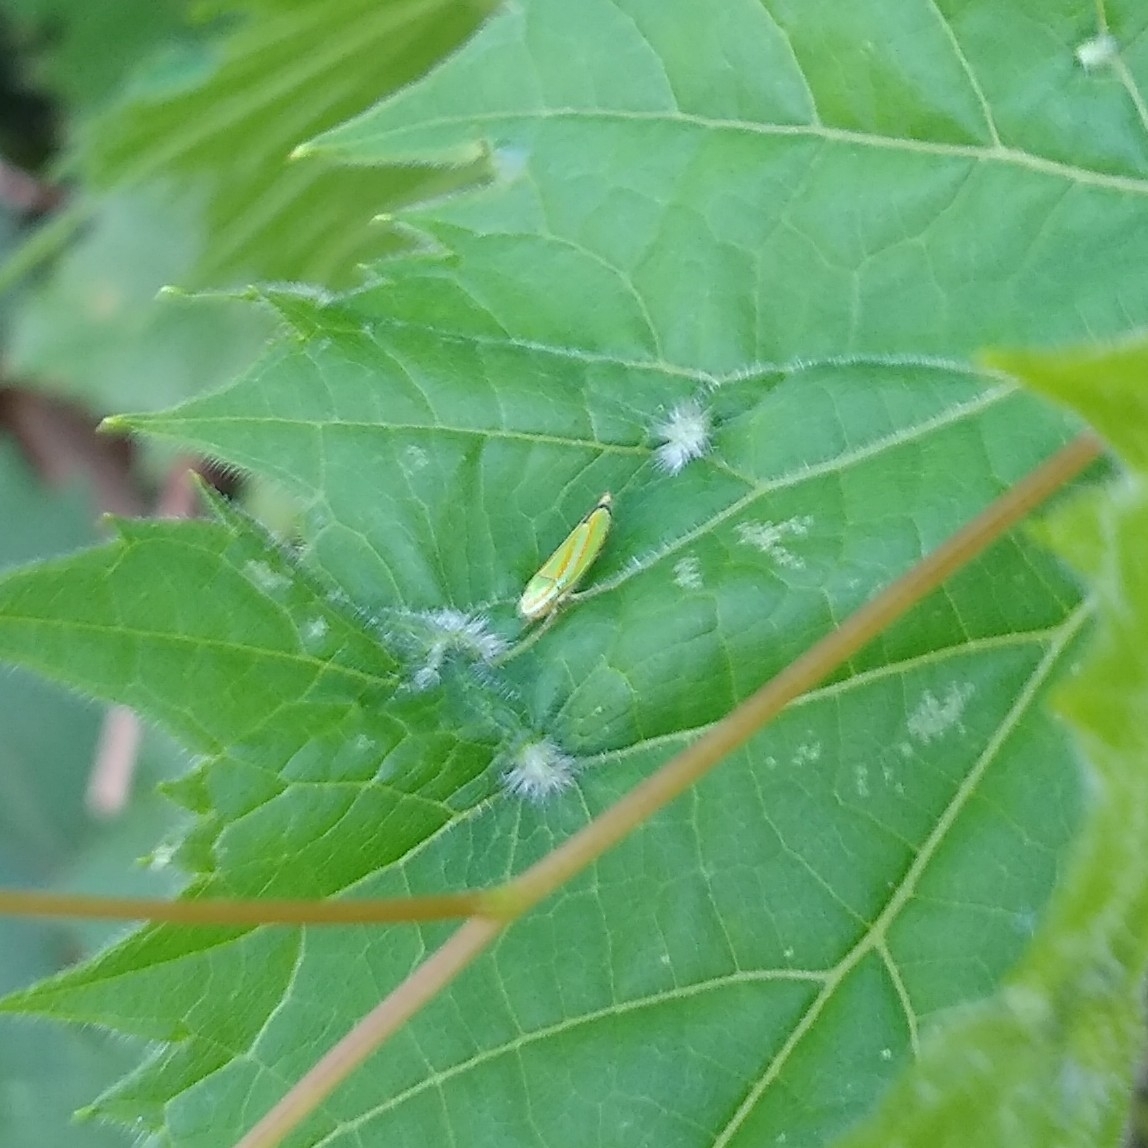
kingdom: Animalia
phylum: Arthropoda
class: Insecta
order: Hemiptera
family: Cicadellidae
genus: Graphocephala
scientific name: Graphocephala versuta
